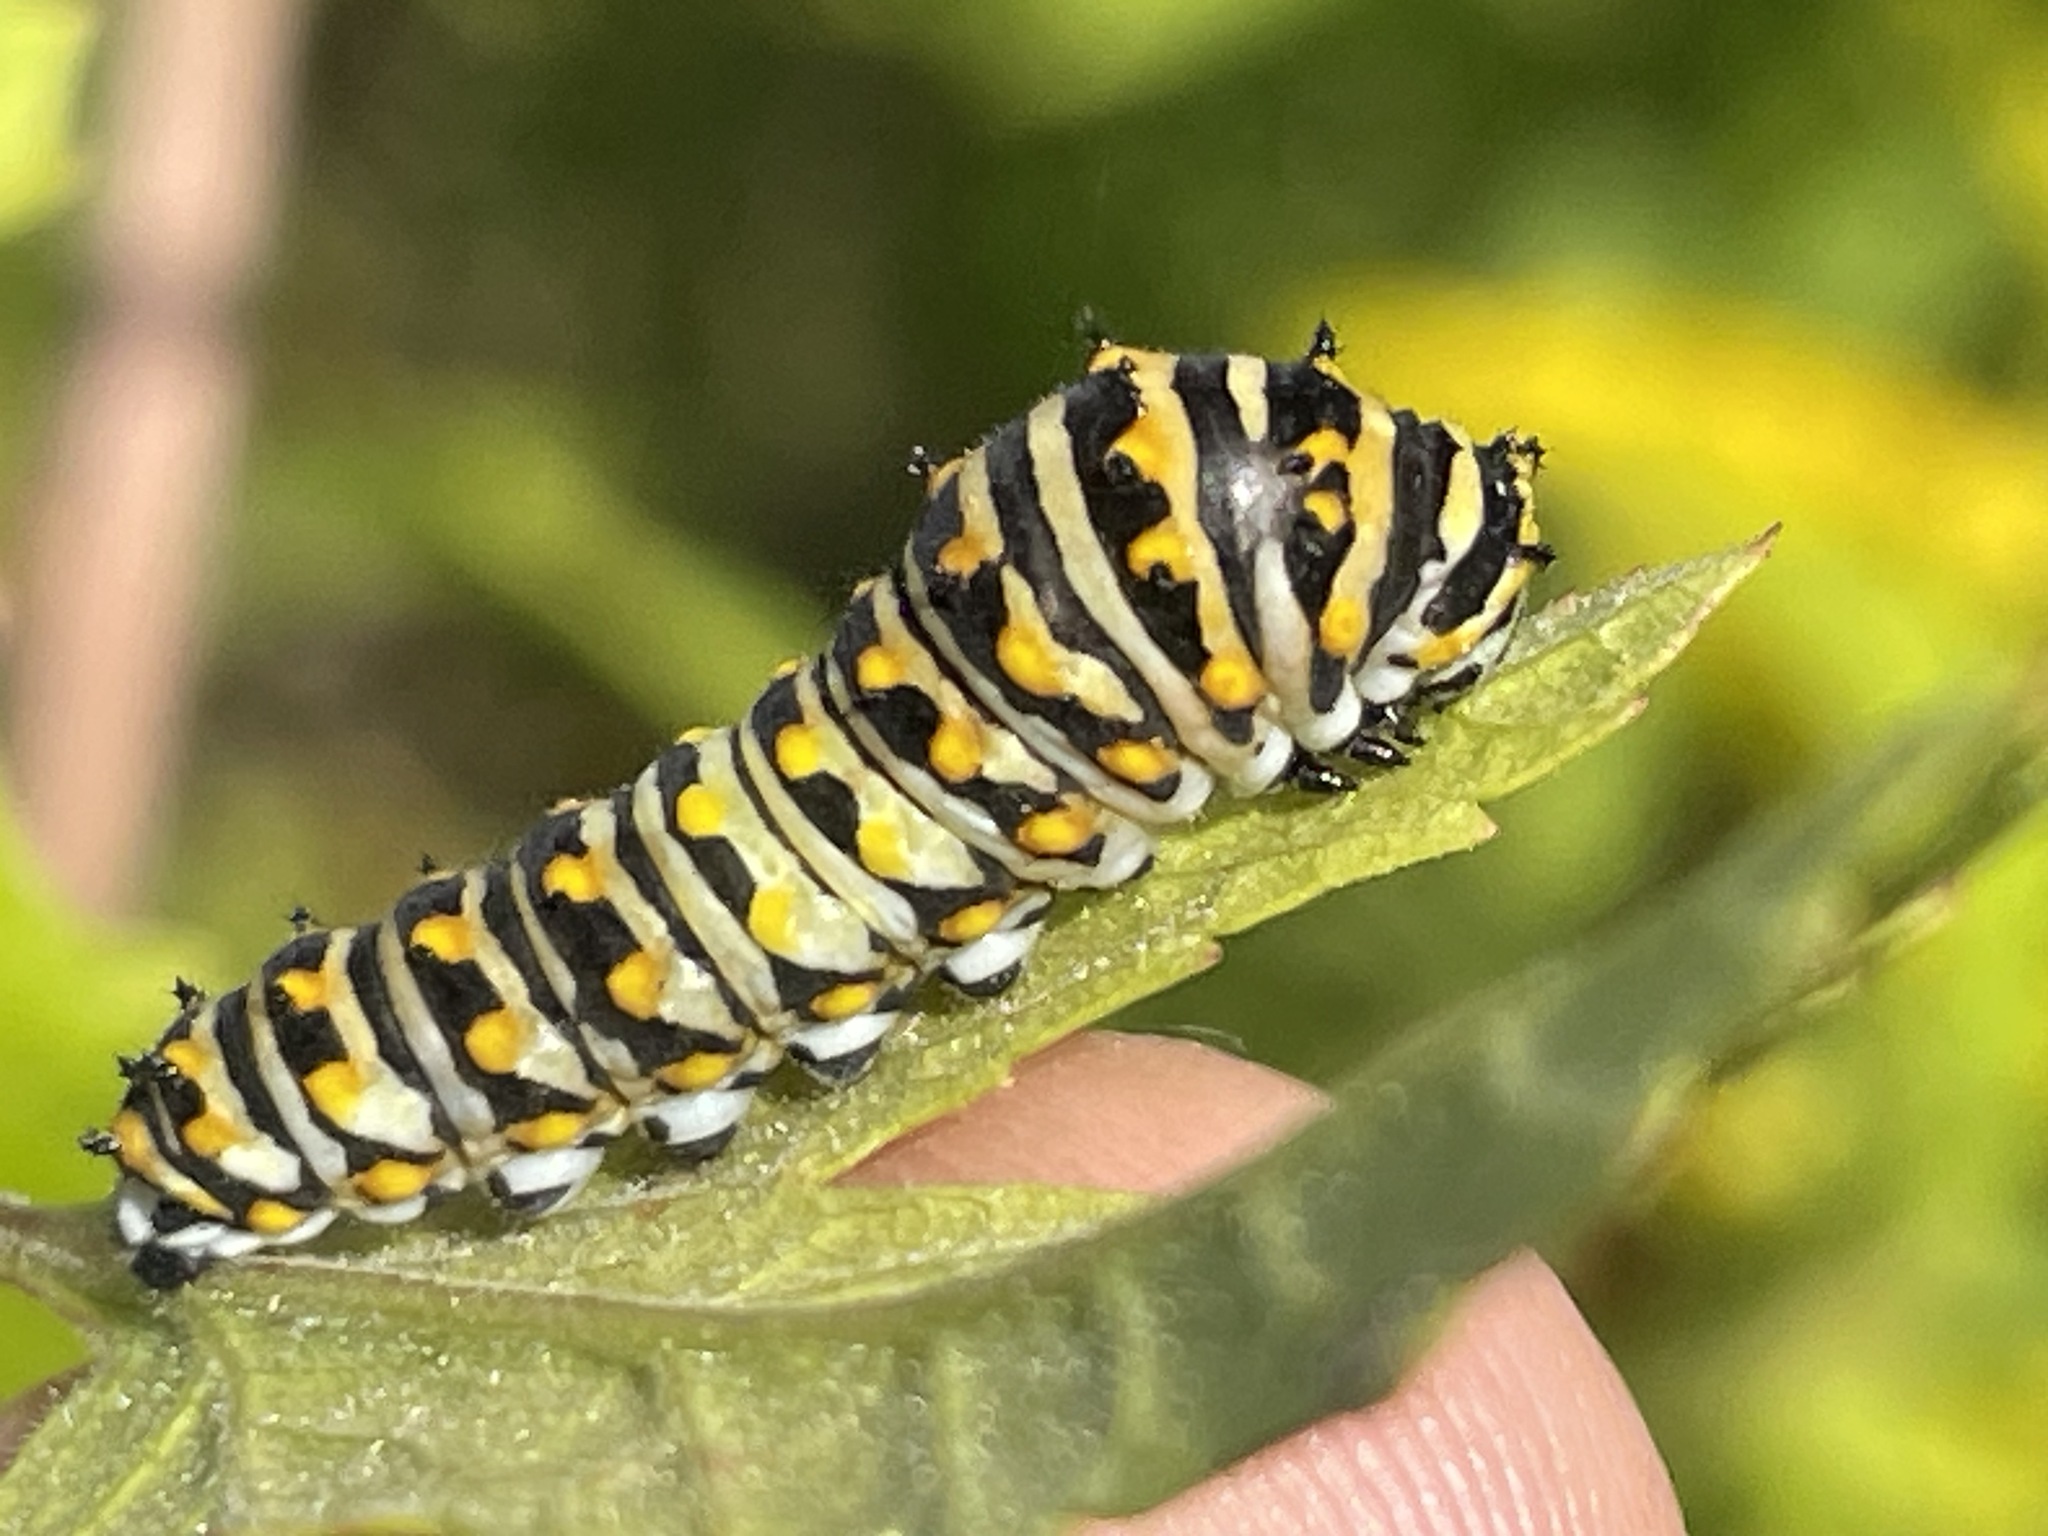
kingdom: Animalia
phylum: Arthropoda
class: Insecta
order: Lepidoptera
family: Papilionidae
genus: Papilio
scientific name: Papilio polyxenes
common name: Black swallowtail
